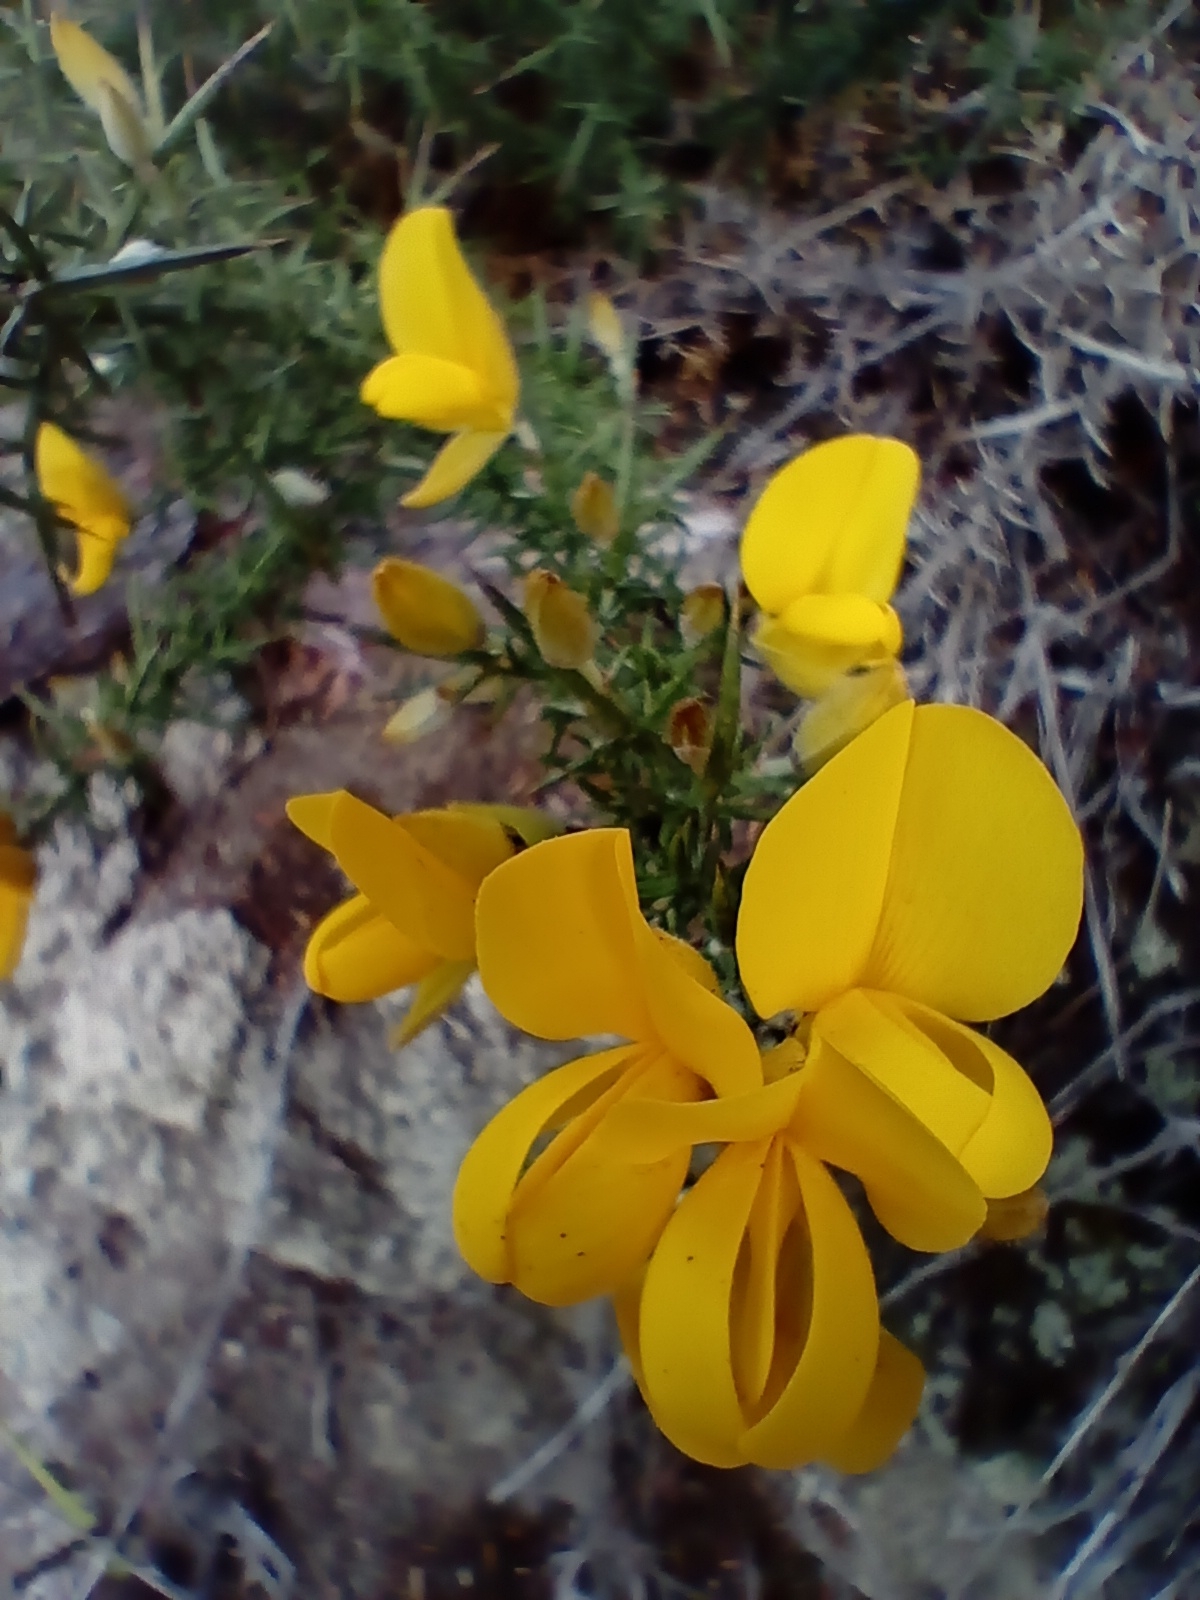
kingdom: Plantae
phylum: Tracheophyta
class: Magnoliopsida
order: Fabales
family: Fabaceae
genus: Ulex
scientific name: Ulex europaeus
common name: Common gorse
